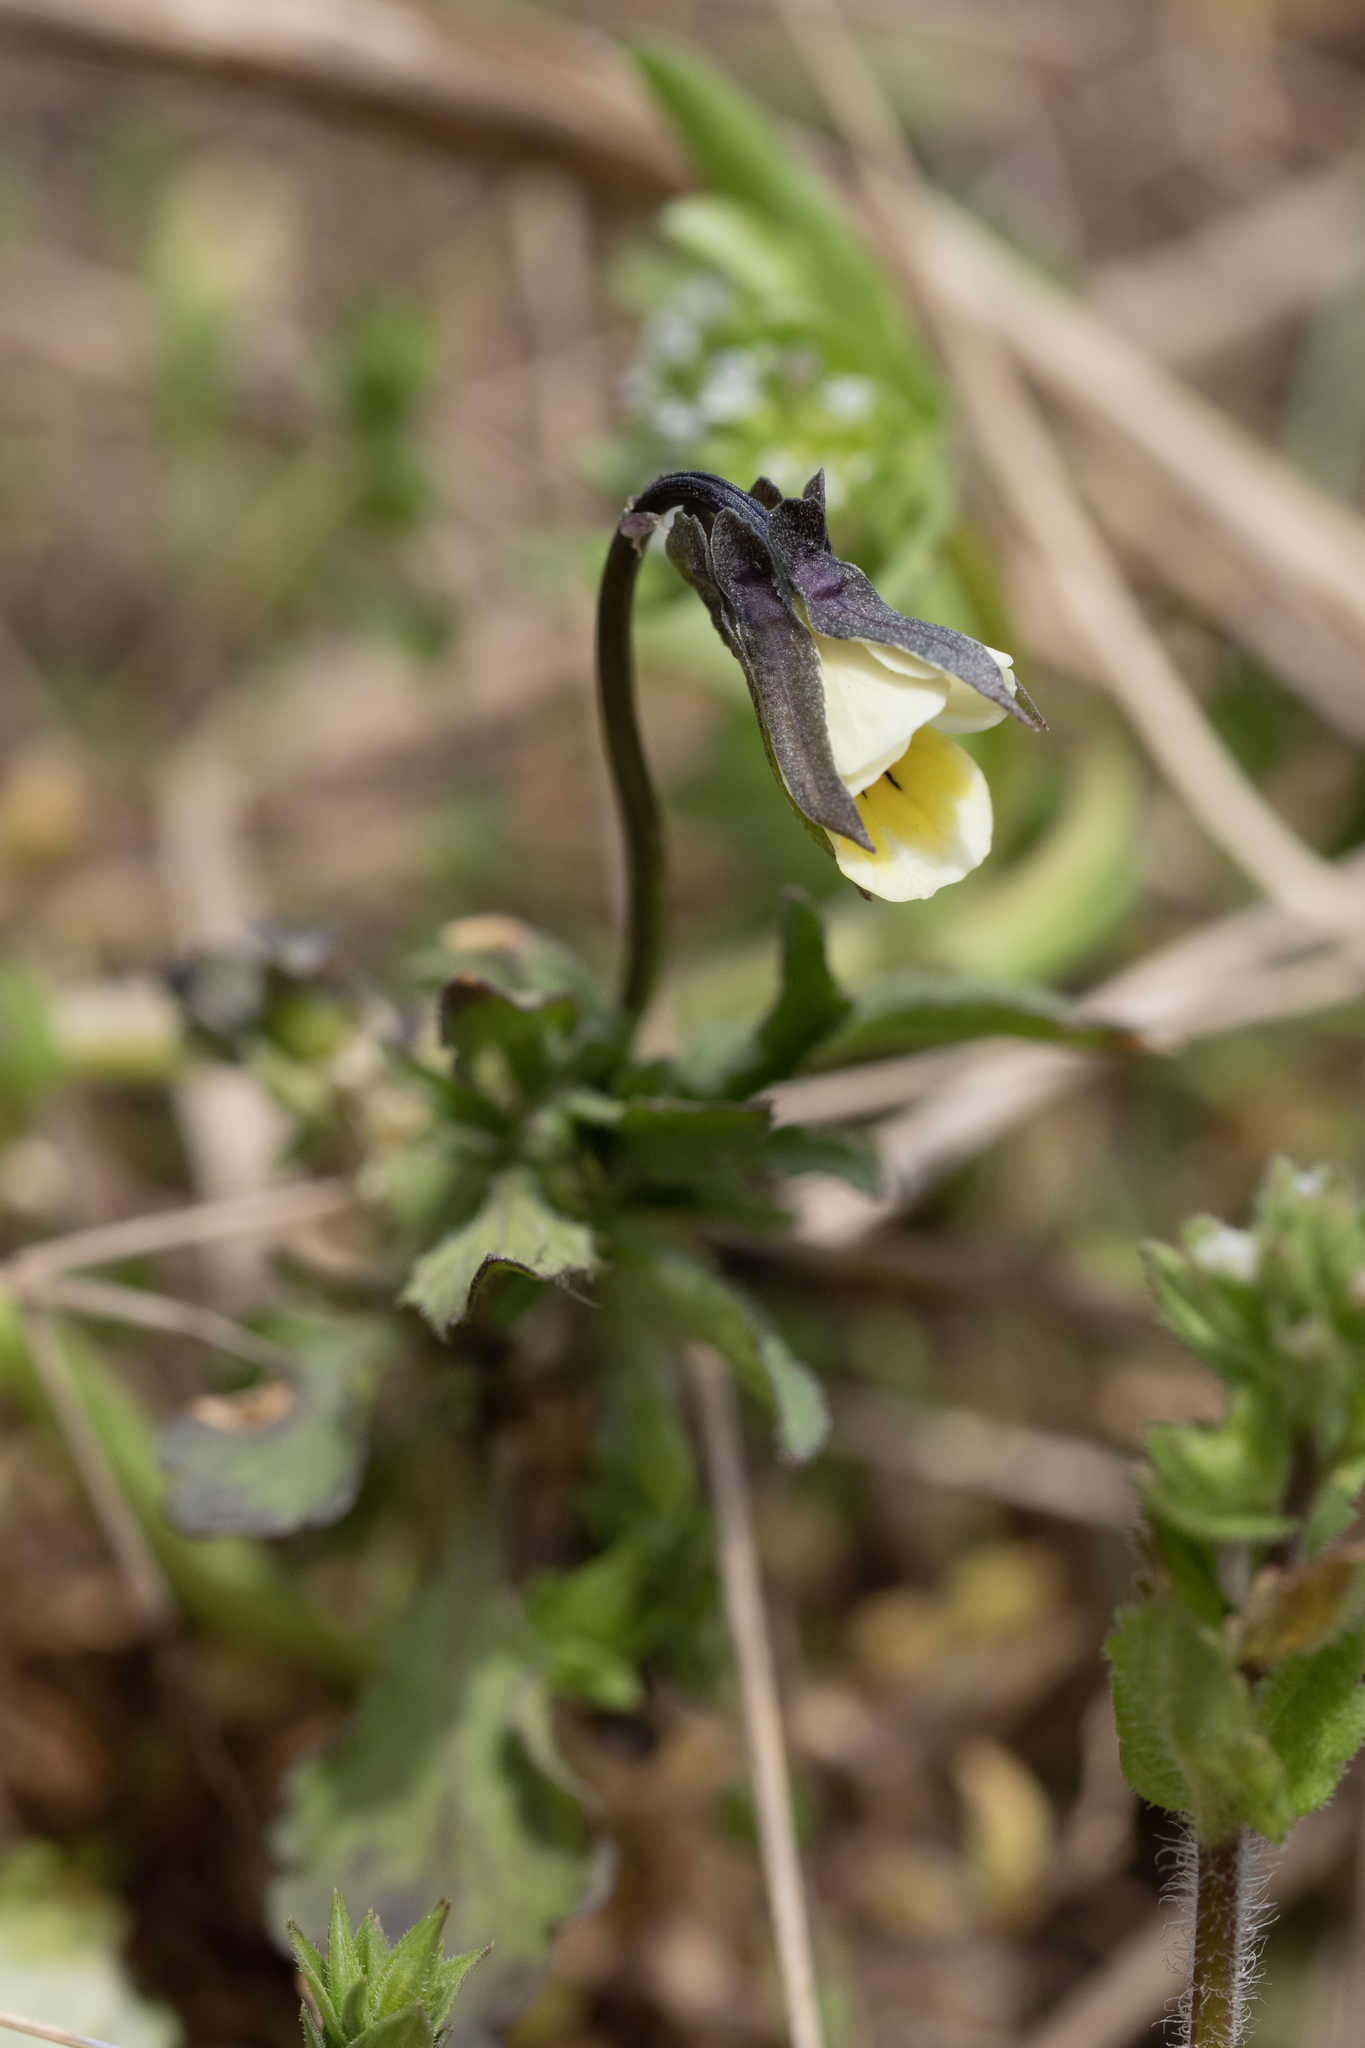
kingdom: Plantae
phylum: Tracheophyta
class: Magnoliopsida
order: Malpighiales
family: Violaceae
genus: Viola
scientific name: Viola arvensis
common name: Field pansy
